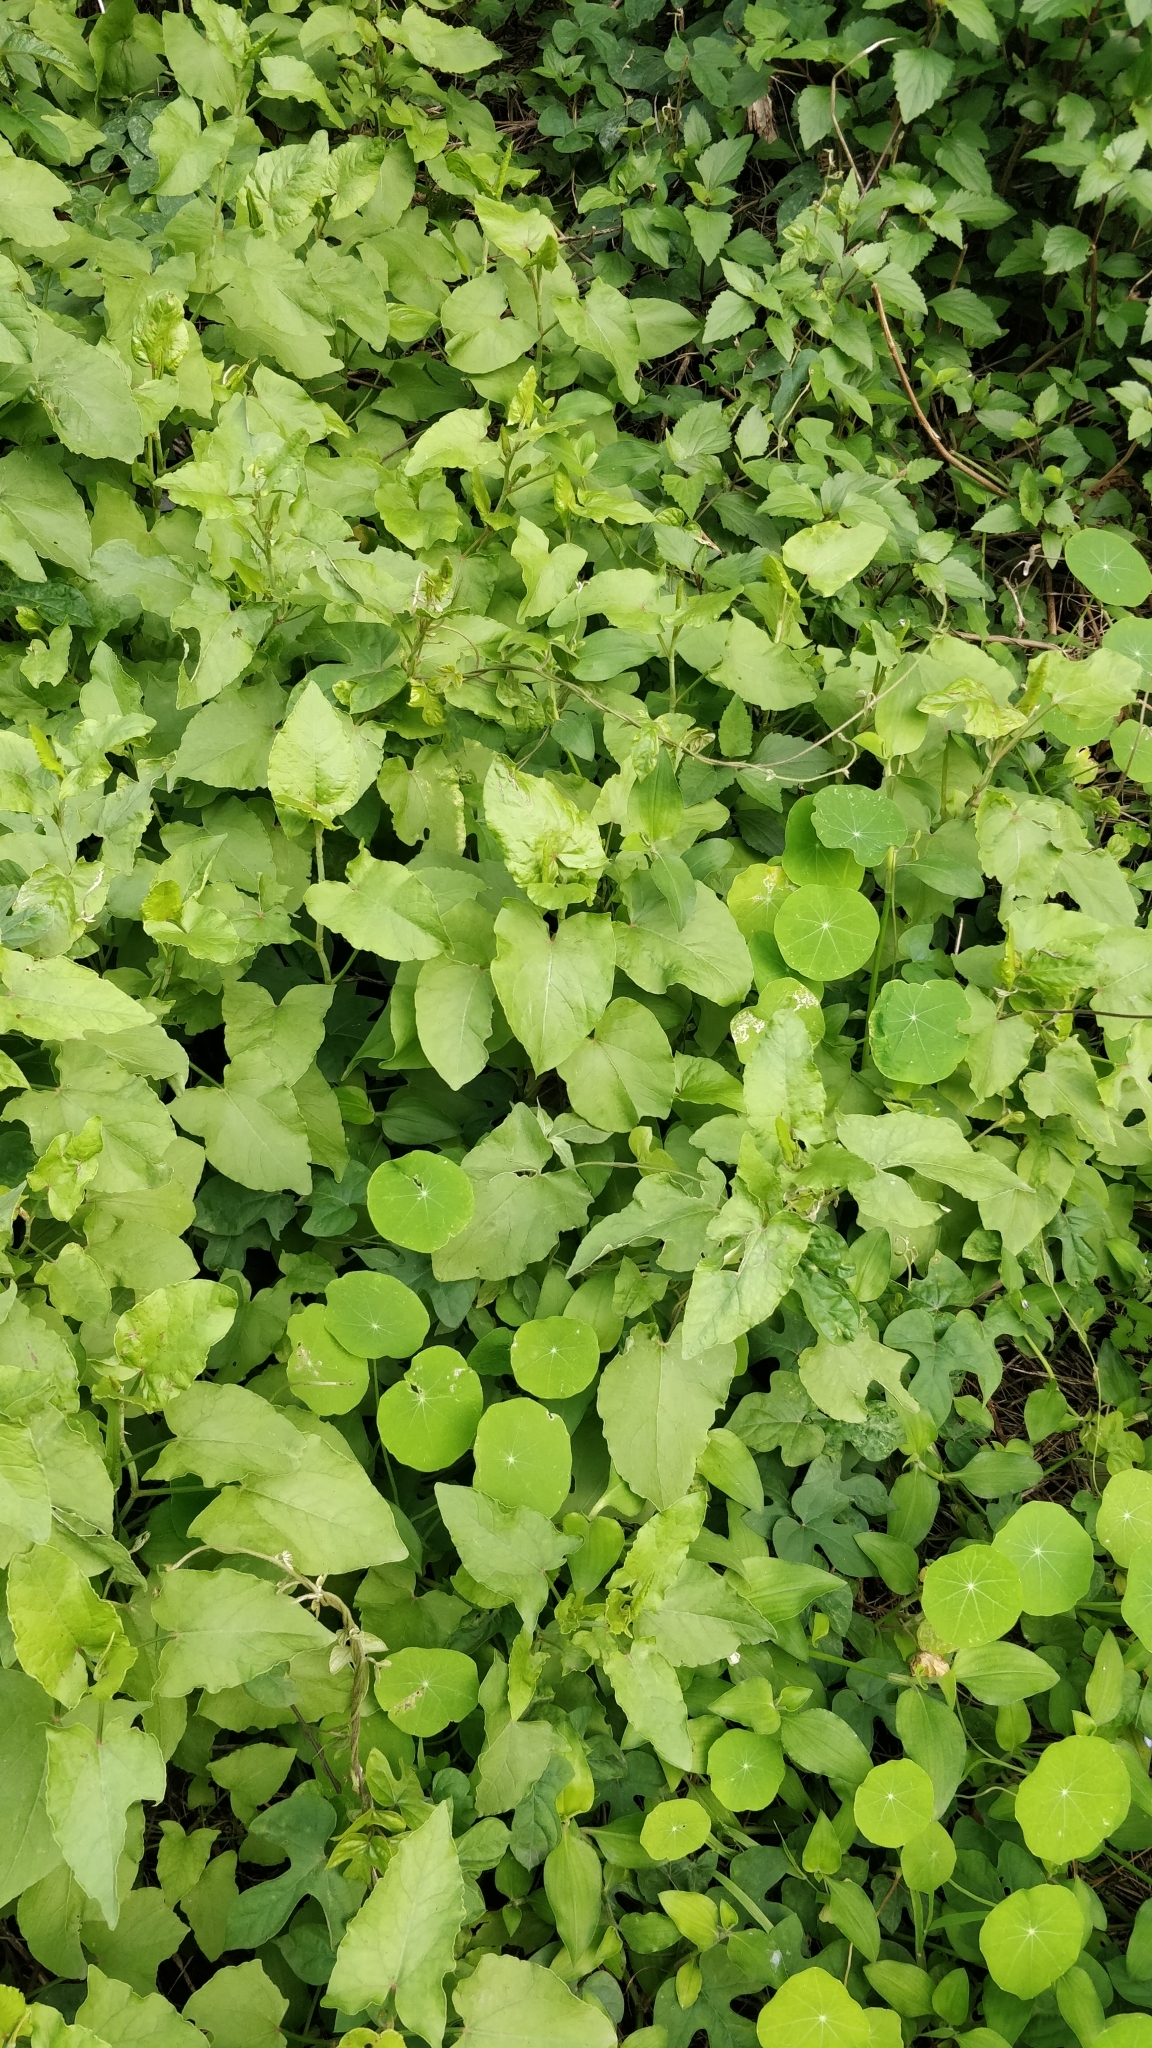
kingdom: Plantae
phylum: Tracheophyta
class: Magnoliopsida
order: Caryophyllales
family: Polygonaceae
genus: Rumex
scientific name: Rumex maderensis
